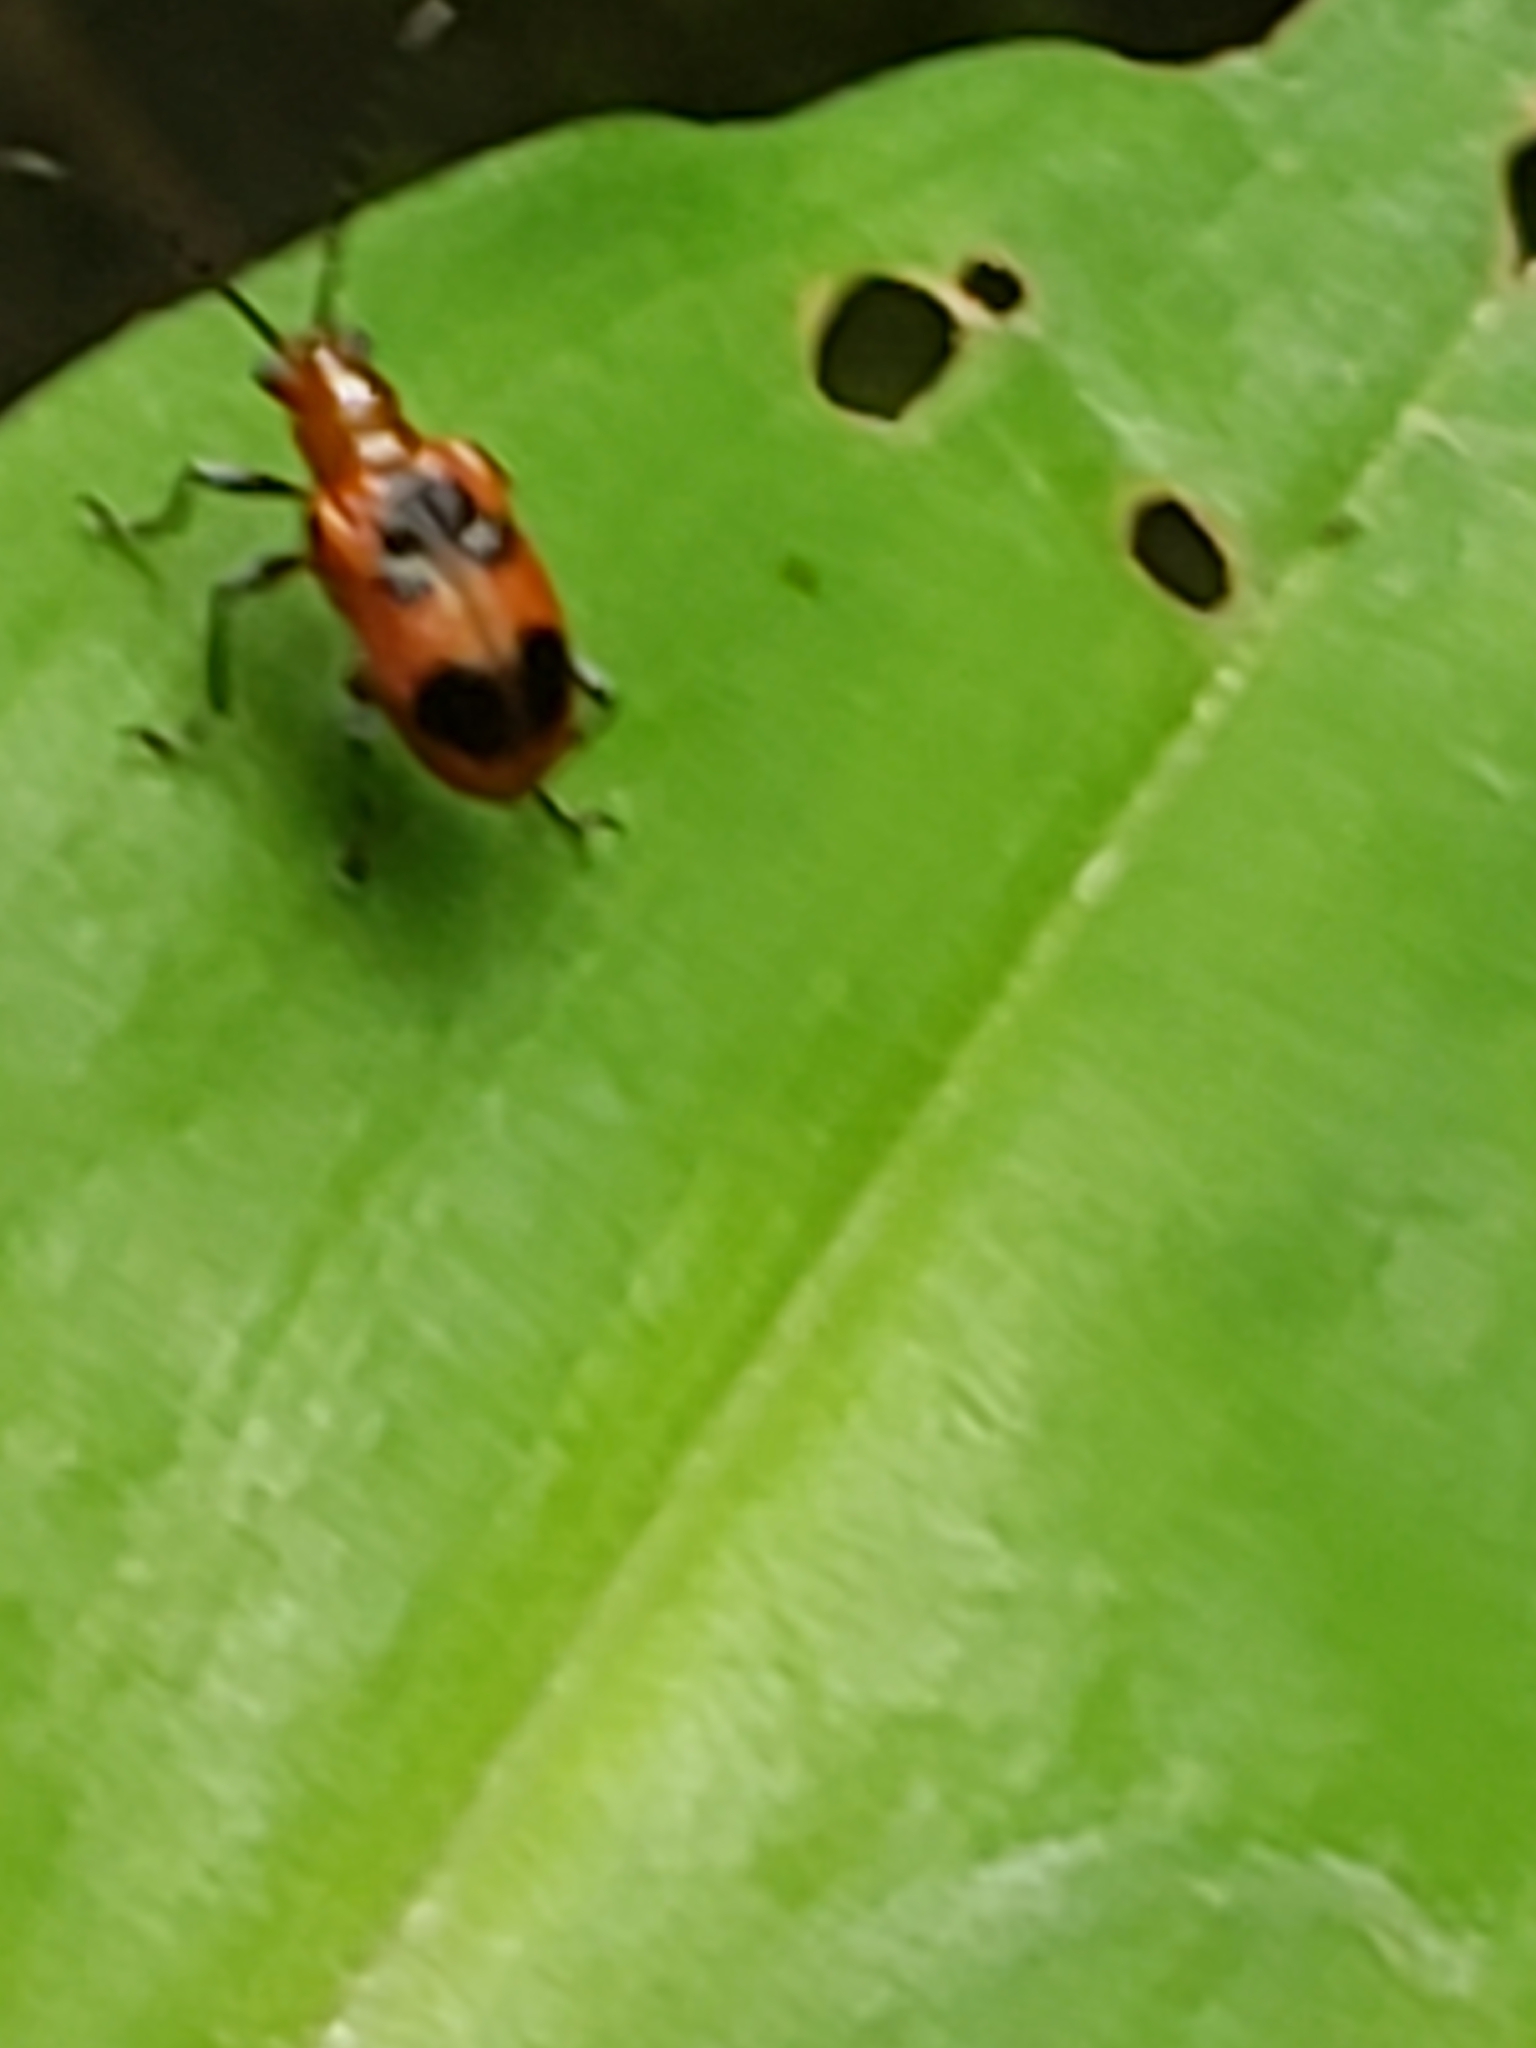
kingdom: Animalia
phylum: Arthropoda
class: Insecta
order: Coleoptera
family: Chrysomelidae
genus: Neolema
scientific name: Neolema cordata
